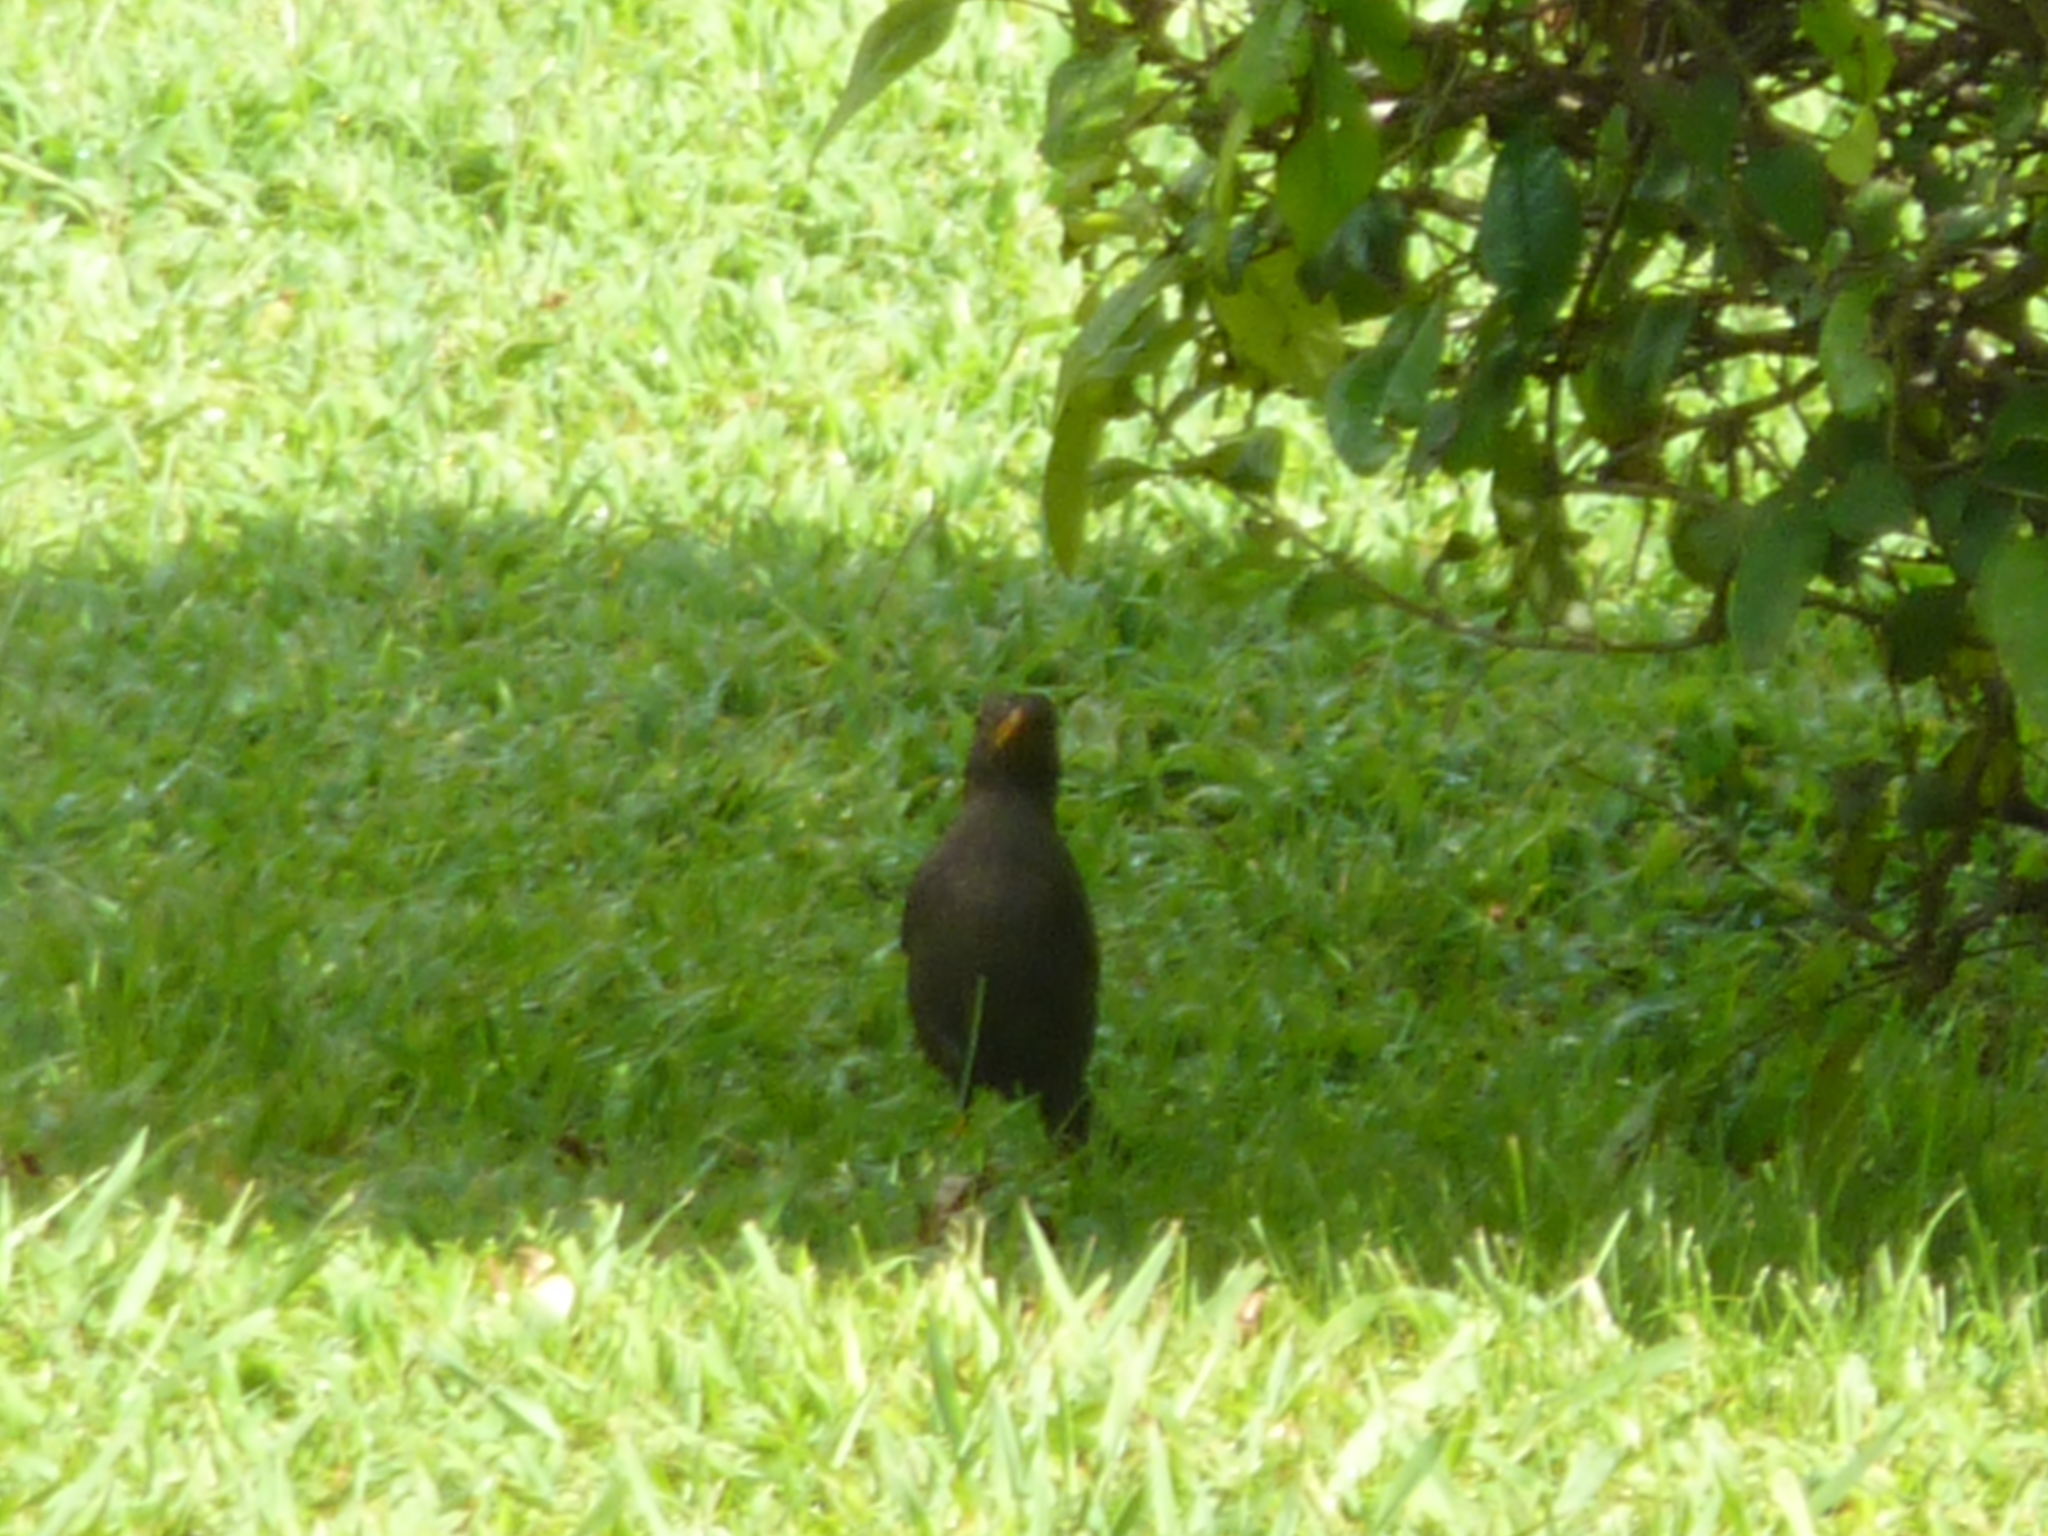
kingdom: Animalia
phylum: Chordata
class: Aves
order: Passeriformes
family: Turdidae
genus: Turdus
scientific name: Turdus chiguanco
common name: Chiguanco thrush
